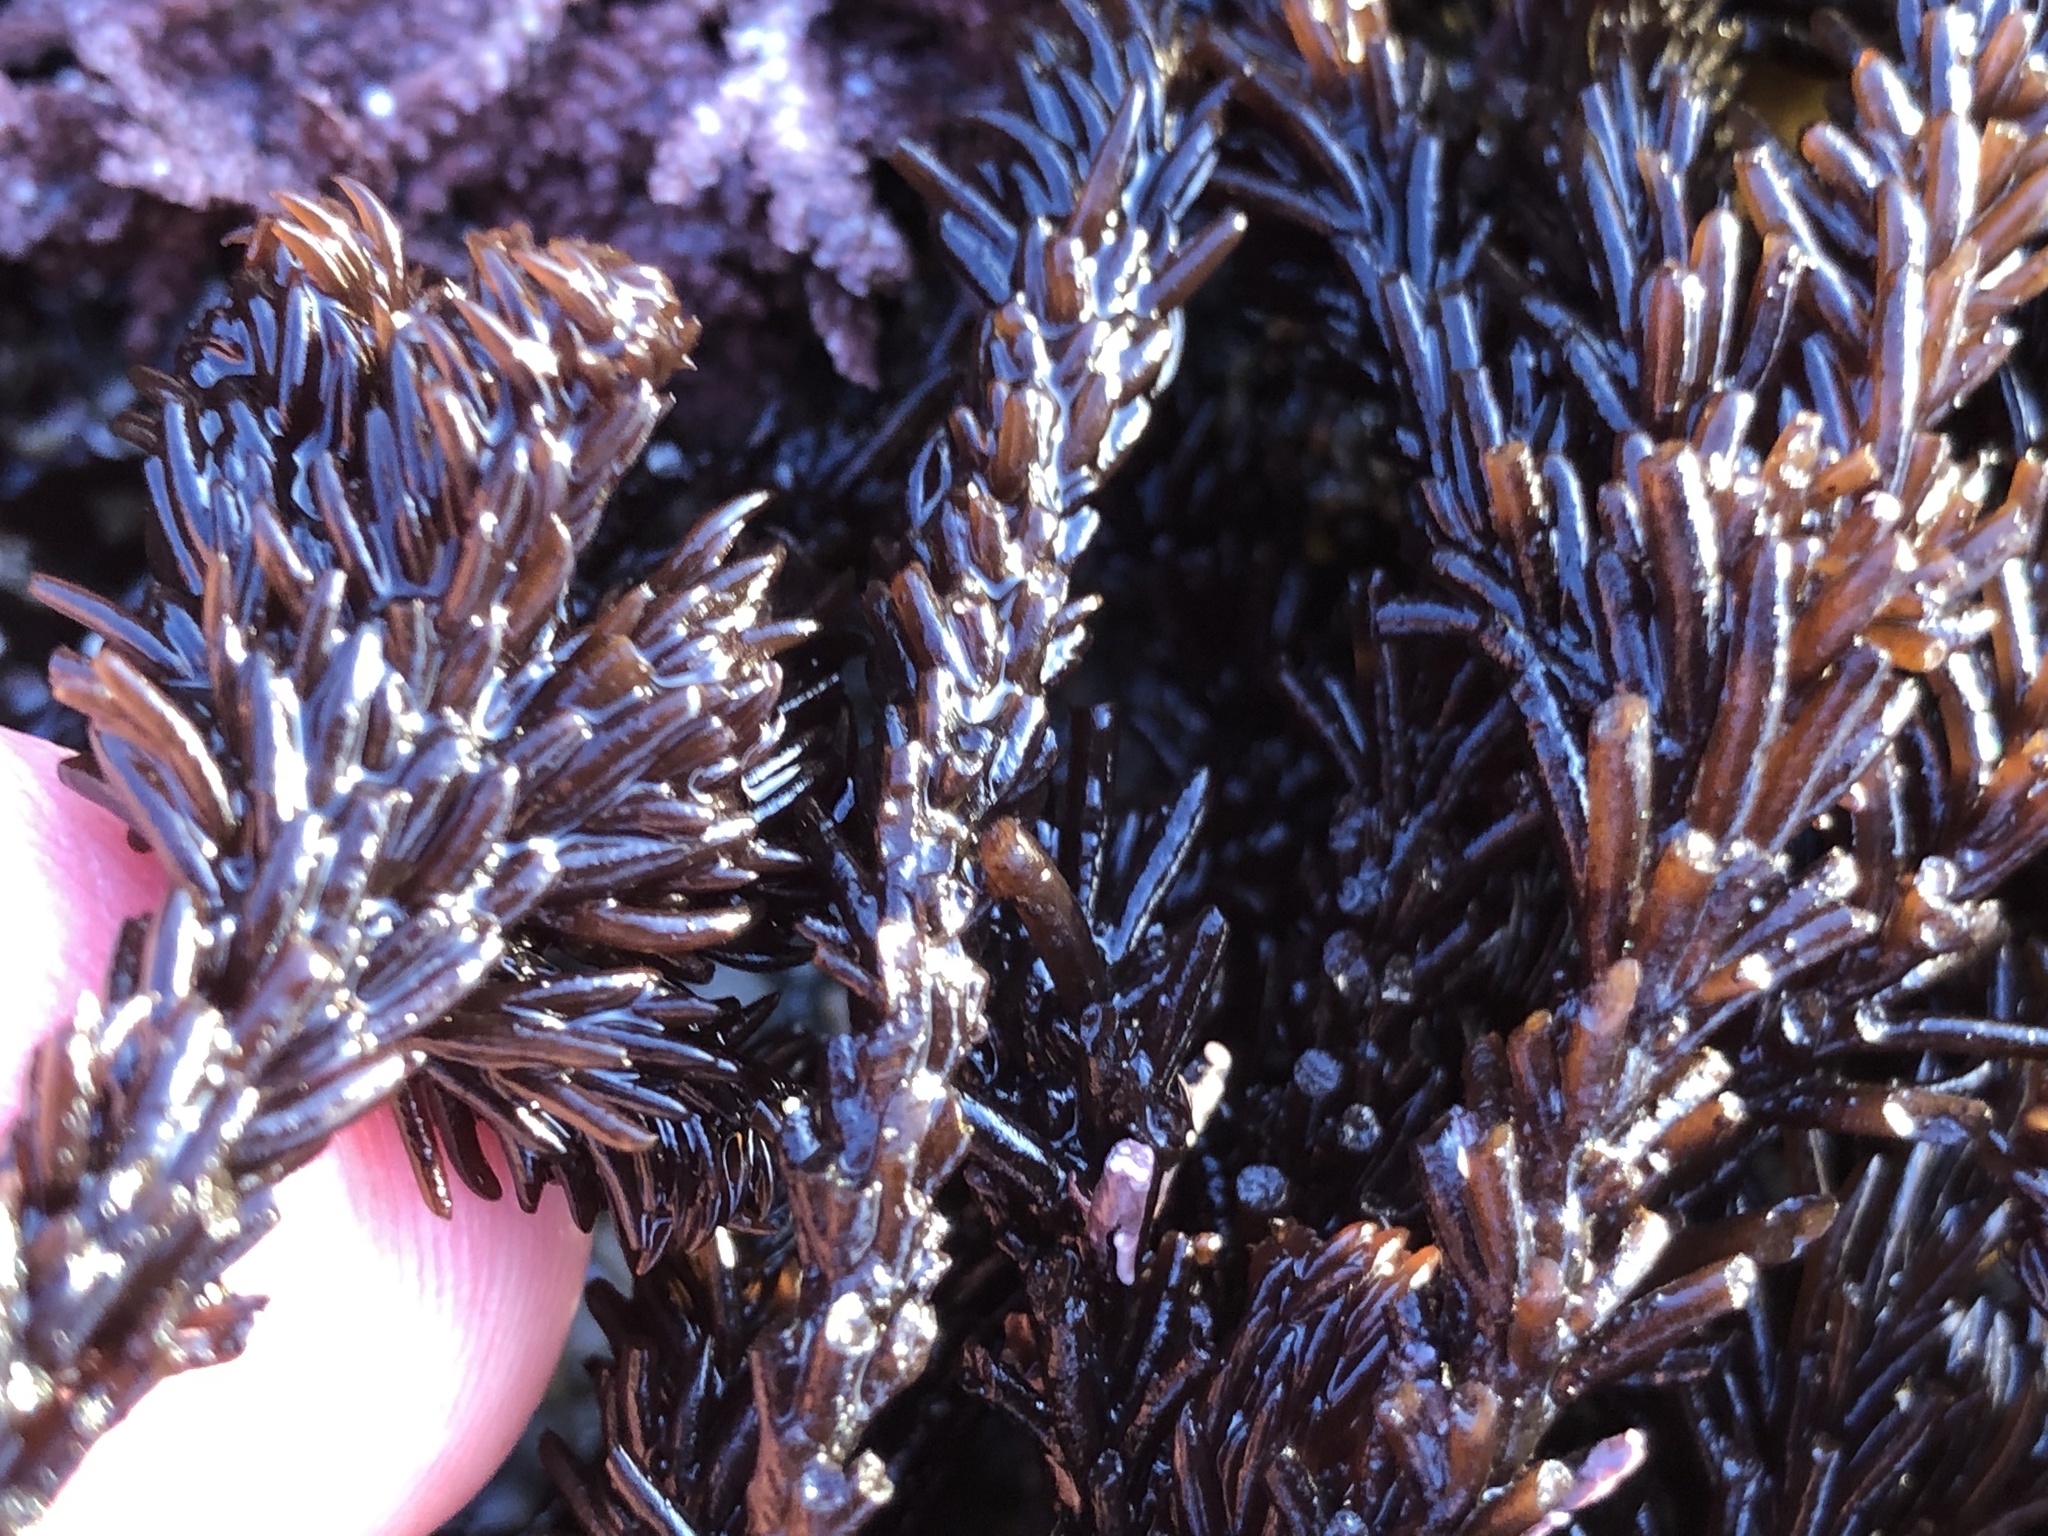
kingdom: Plantae
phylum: Rhodophyta
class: Florideophyceae
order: Ceramiales
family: Rhodomelaceae
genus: Neorhodomela
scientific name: Neorhodomela larix
